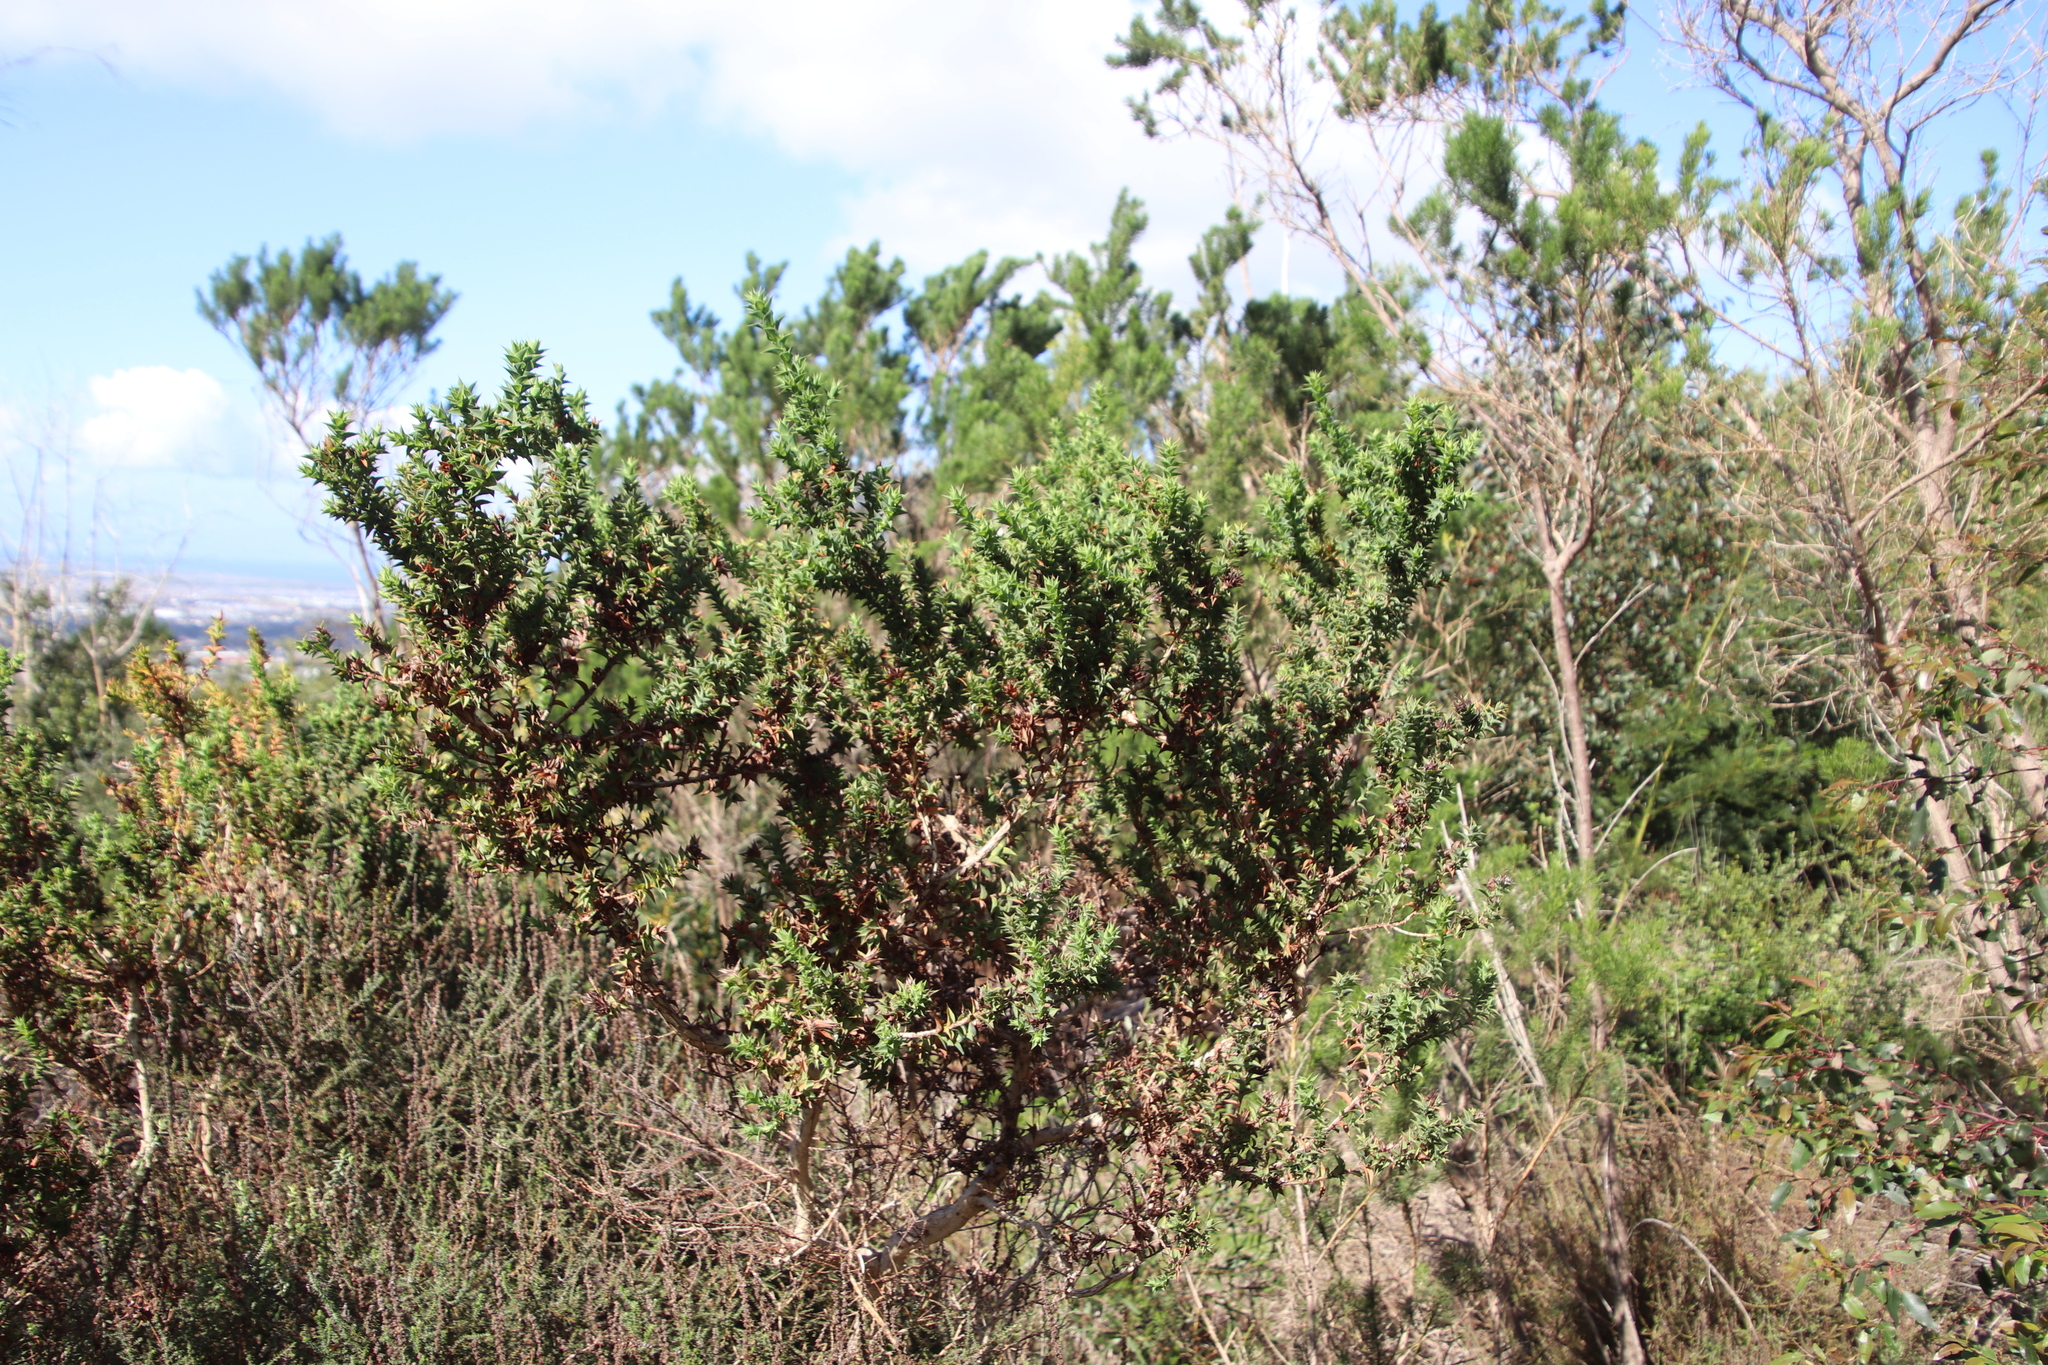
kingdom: Plantae
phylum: Tracheophyta
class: Magnoliopsida
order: Fabales
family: Fabaceae
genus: Aspalathus
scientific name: Aspalathus cordata
